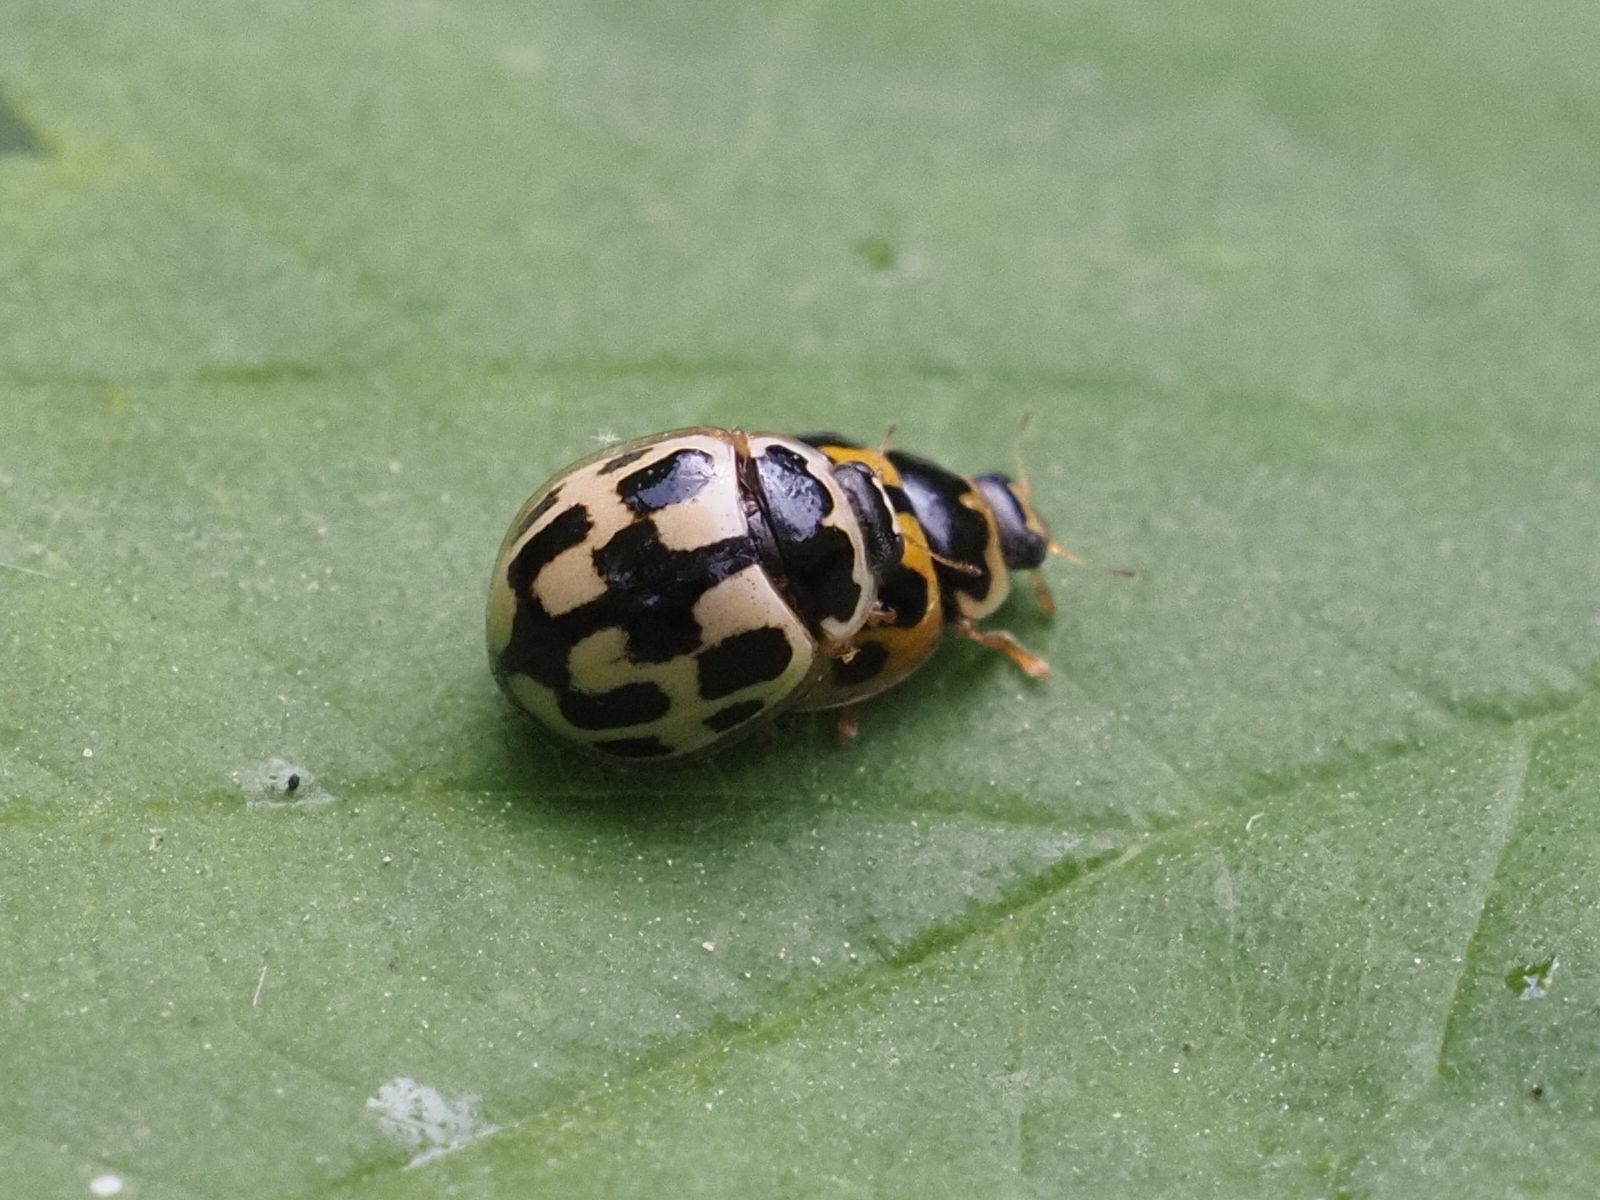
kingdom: Animalia
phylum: Arthropoda
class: Insecta
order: Coleoptera
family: Coccinellidae
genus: Propylaea
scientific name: Propylaea quatuordecimpunctata
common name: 14-spotted ladybird beetle
